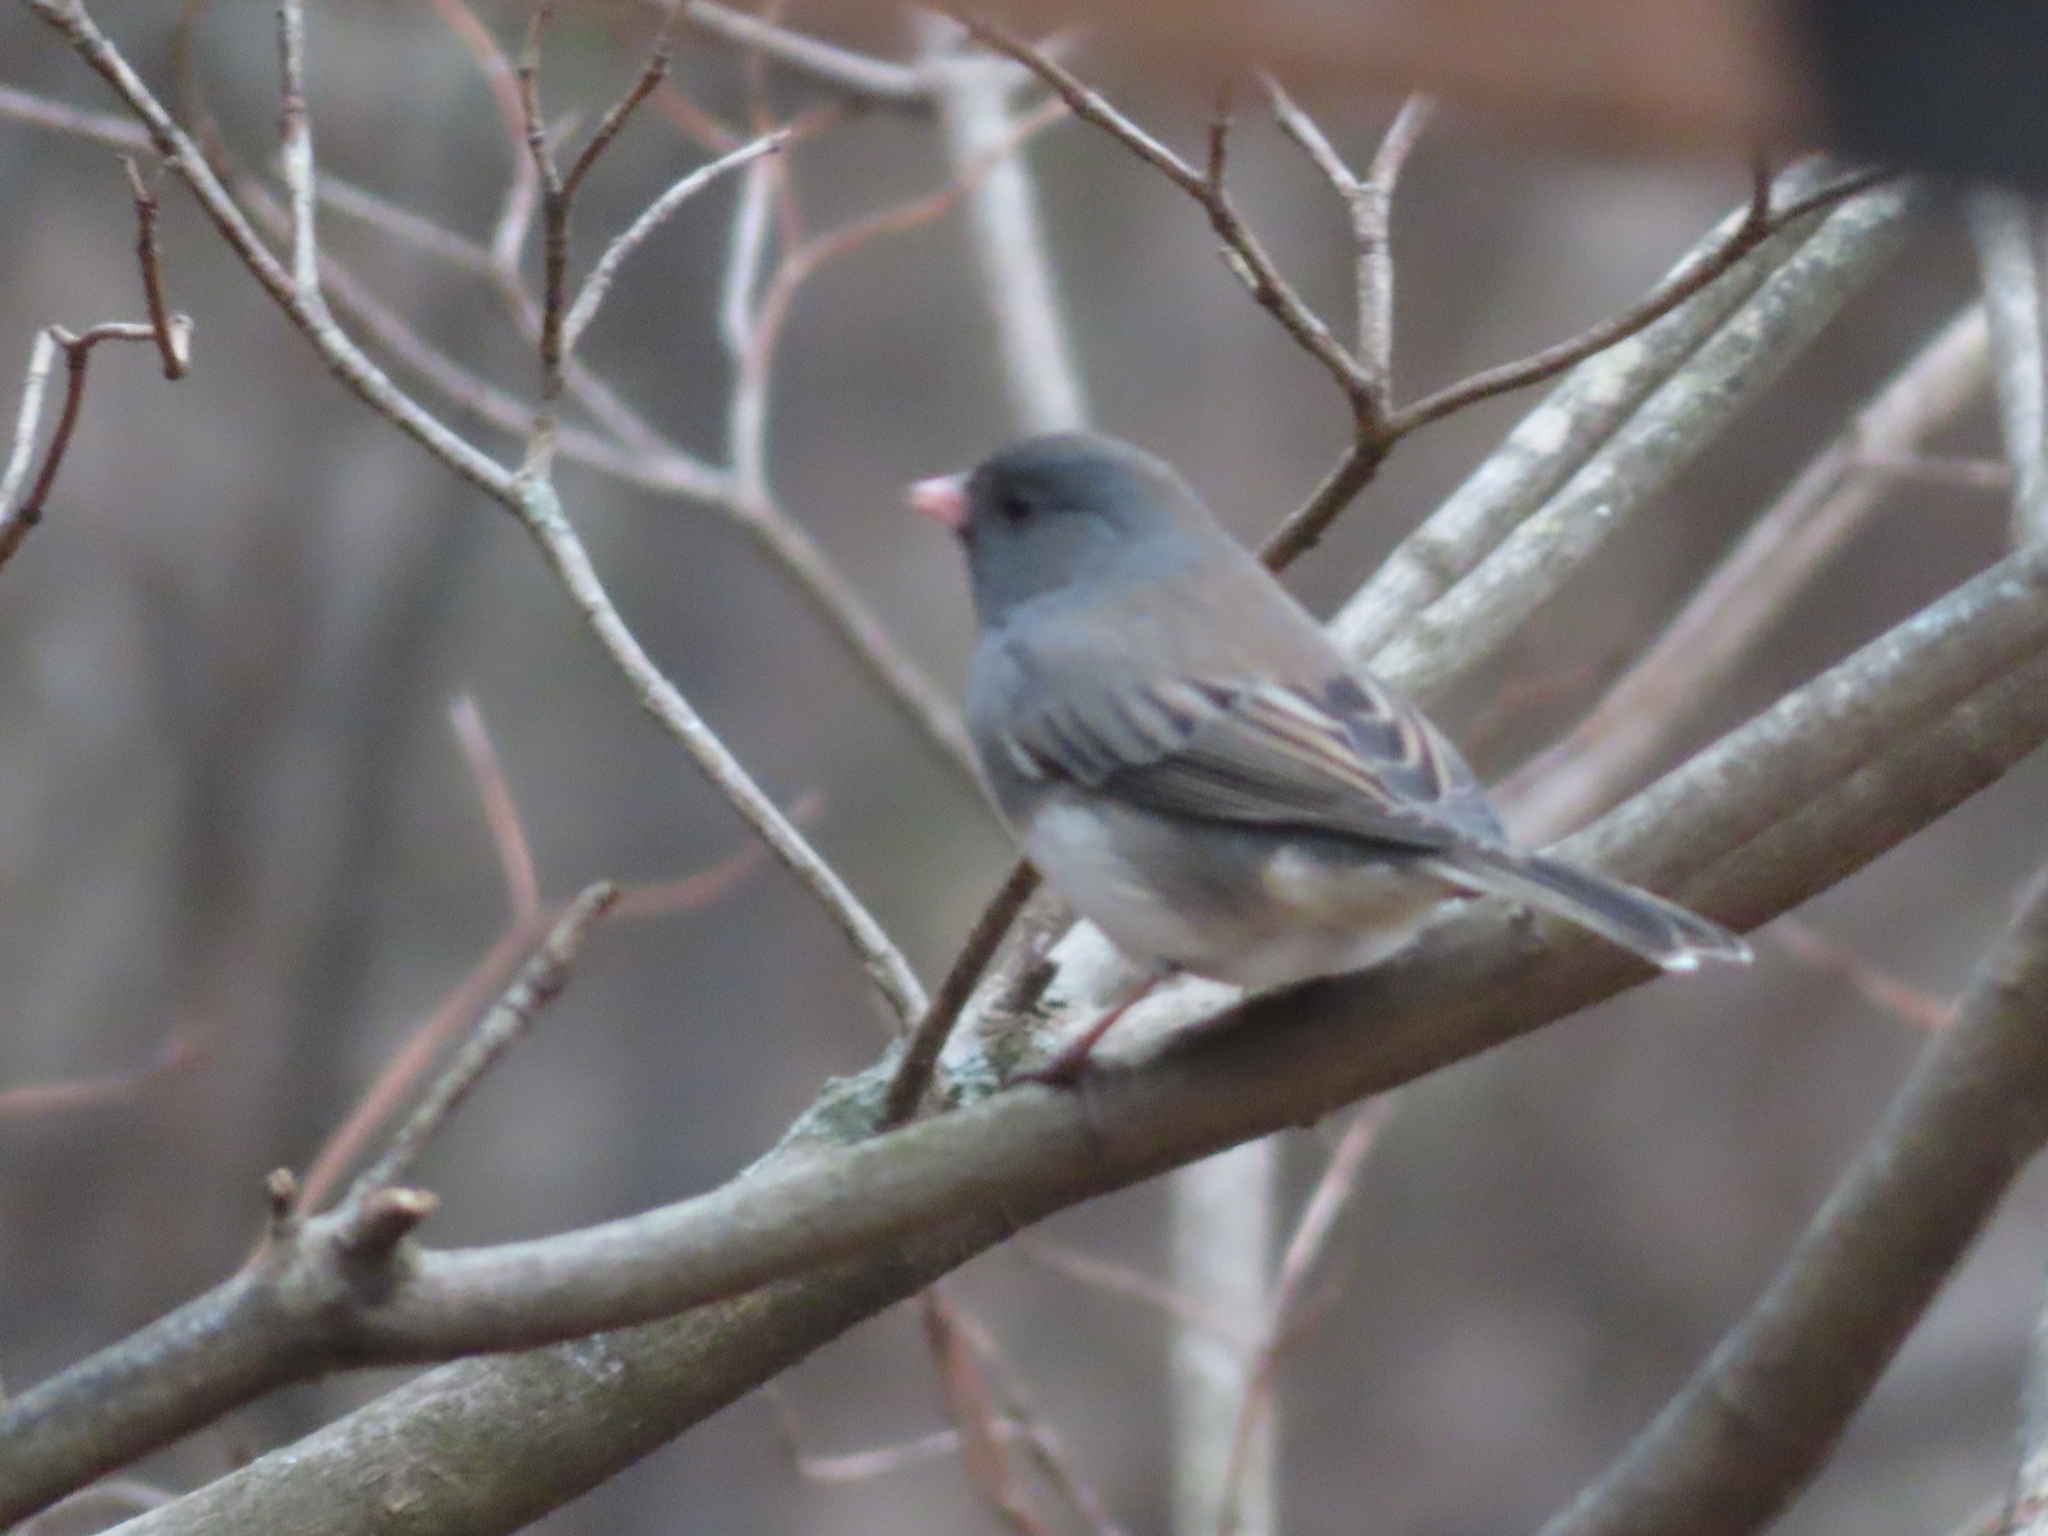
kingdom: Animalia
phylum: Chordata
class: Aves
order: Passeriformes
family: Passerellidae
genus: Junco
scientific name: Junco hyemalis
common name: Dark-eyed junco
